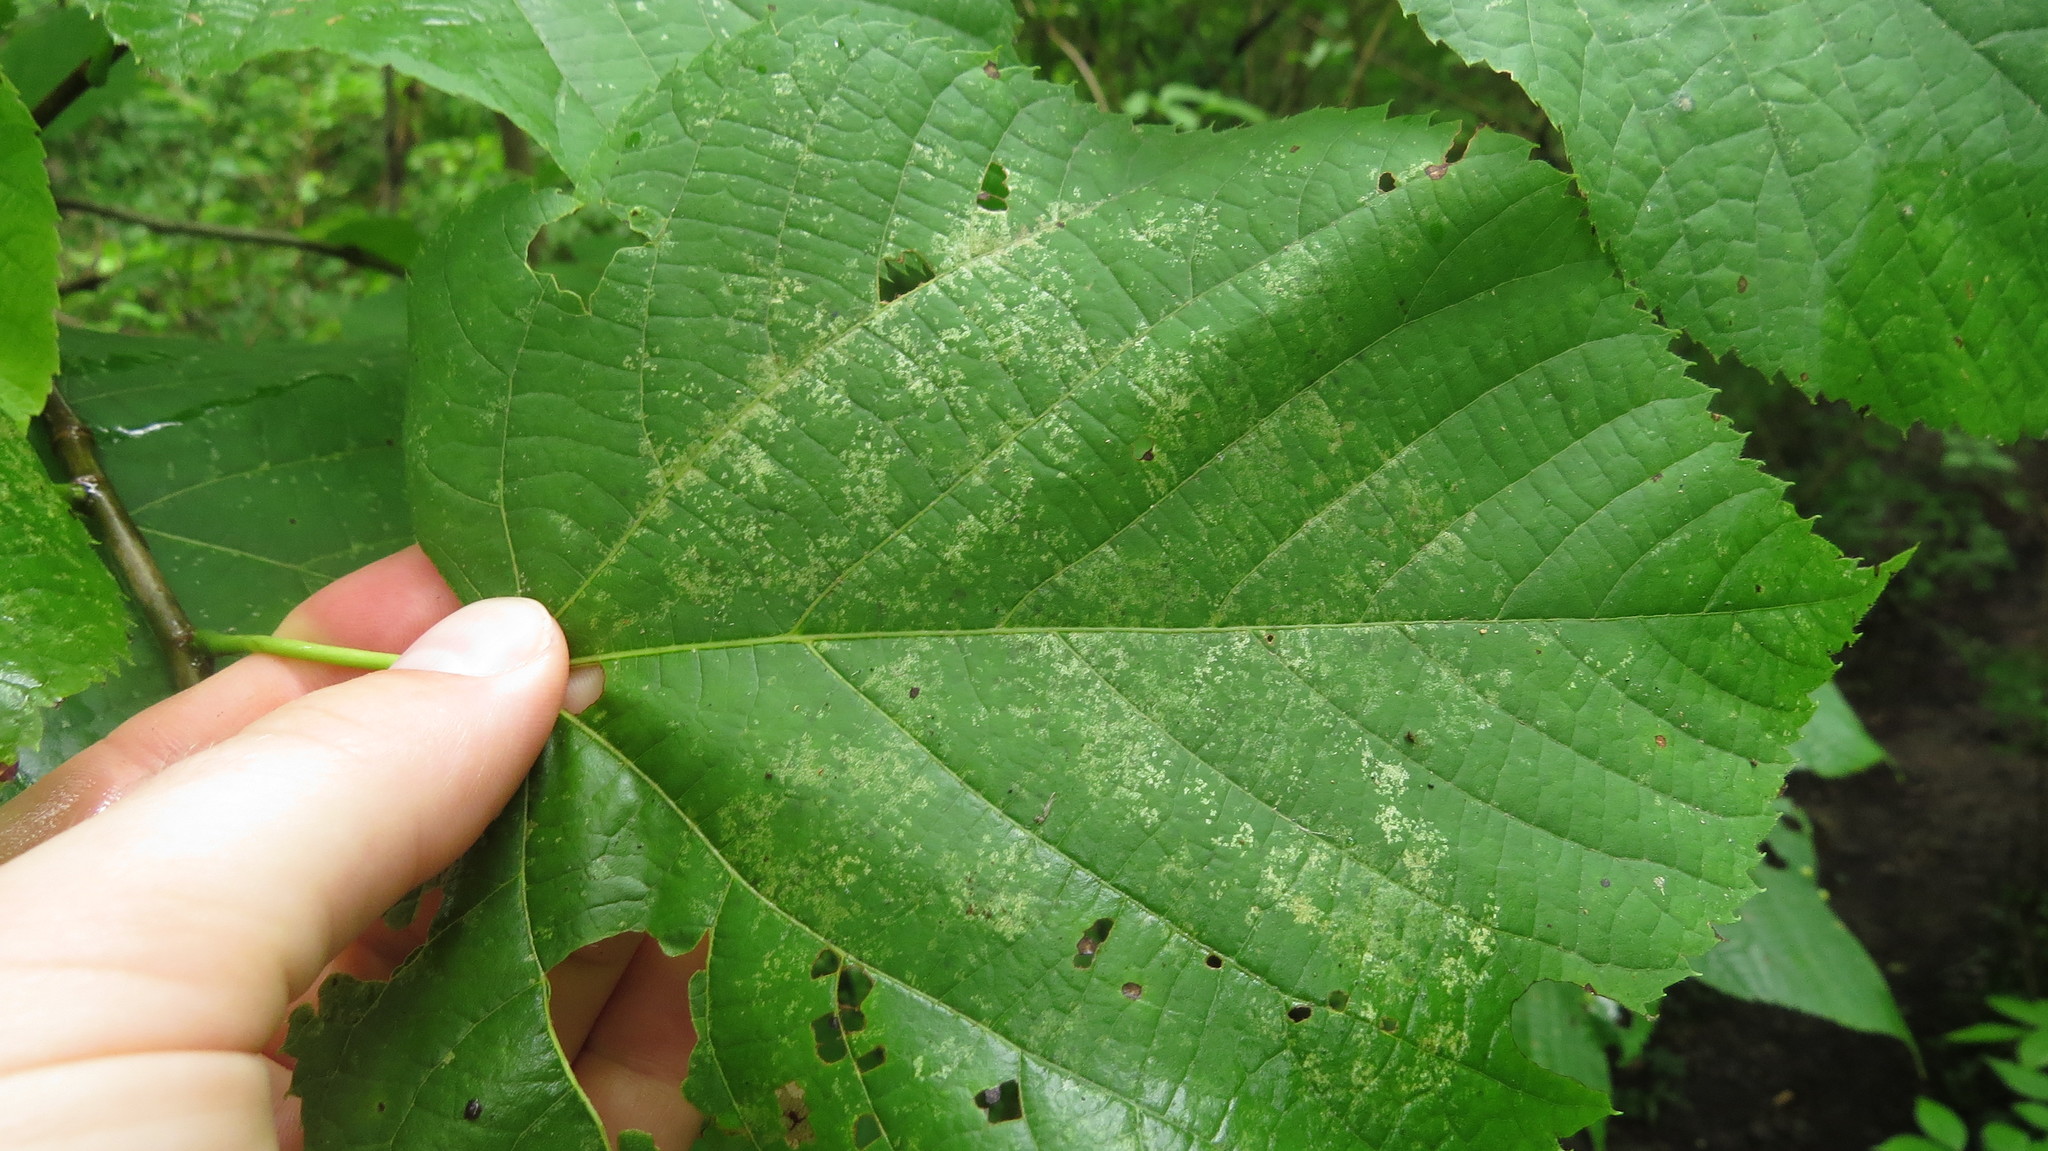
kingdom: Animalia
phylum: Arthropoda
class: Insecta
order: Hemiptera
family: Tingidae
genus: Gargaphia
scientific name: Gargaphia tiliae
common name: Basswood lace bug
